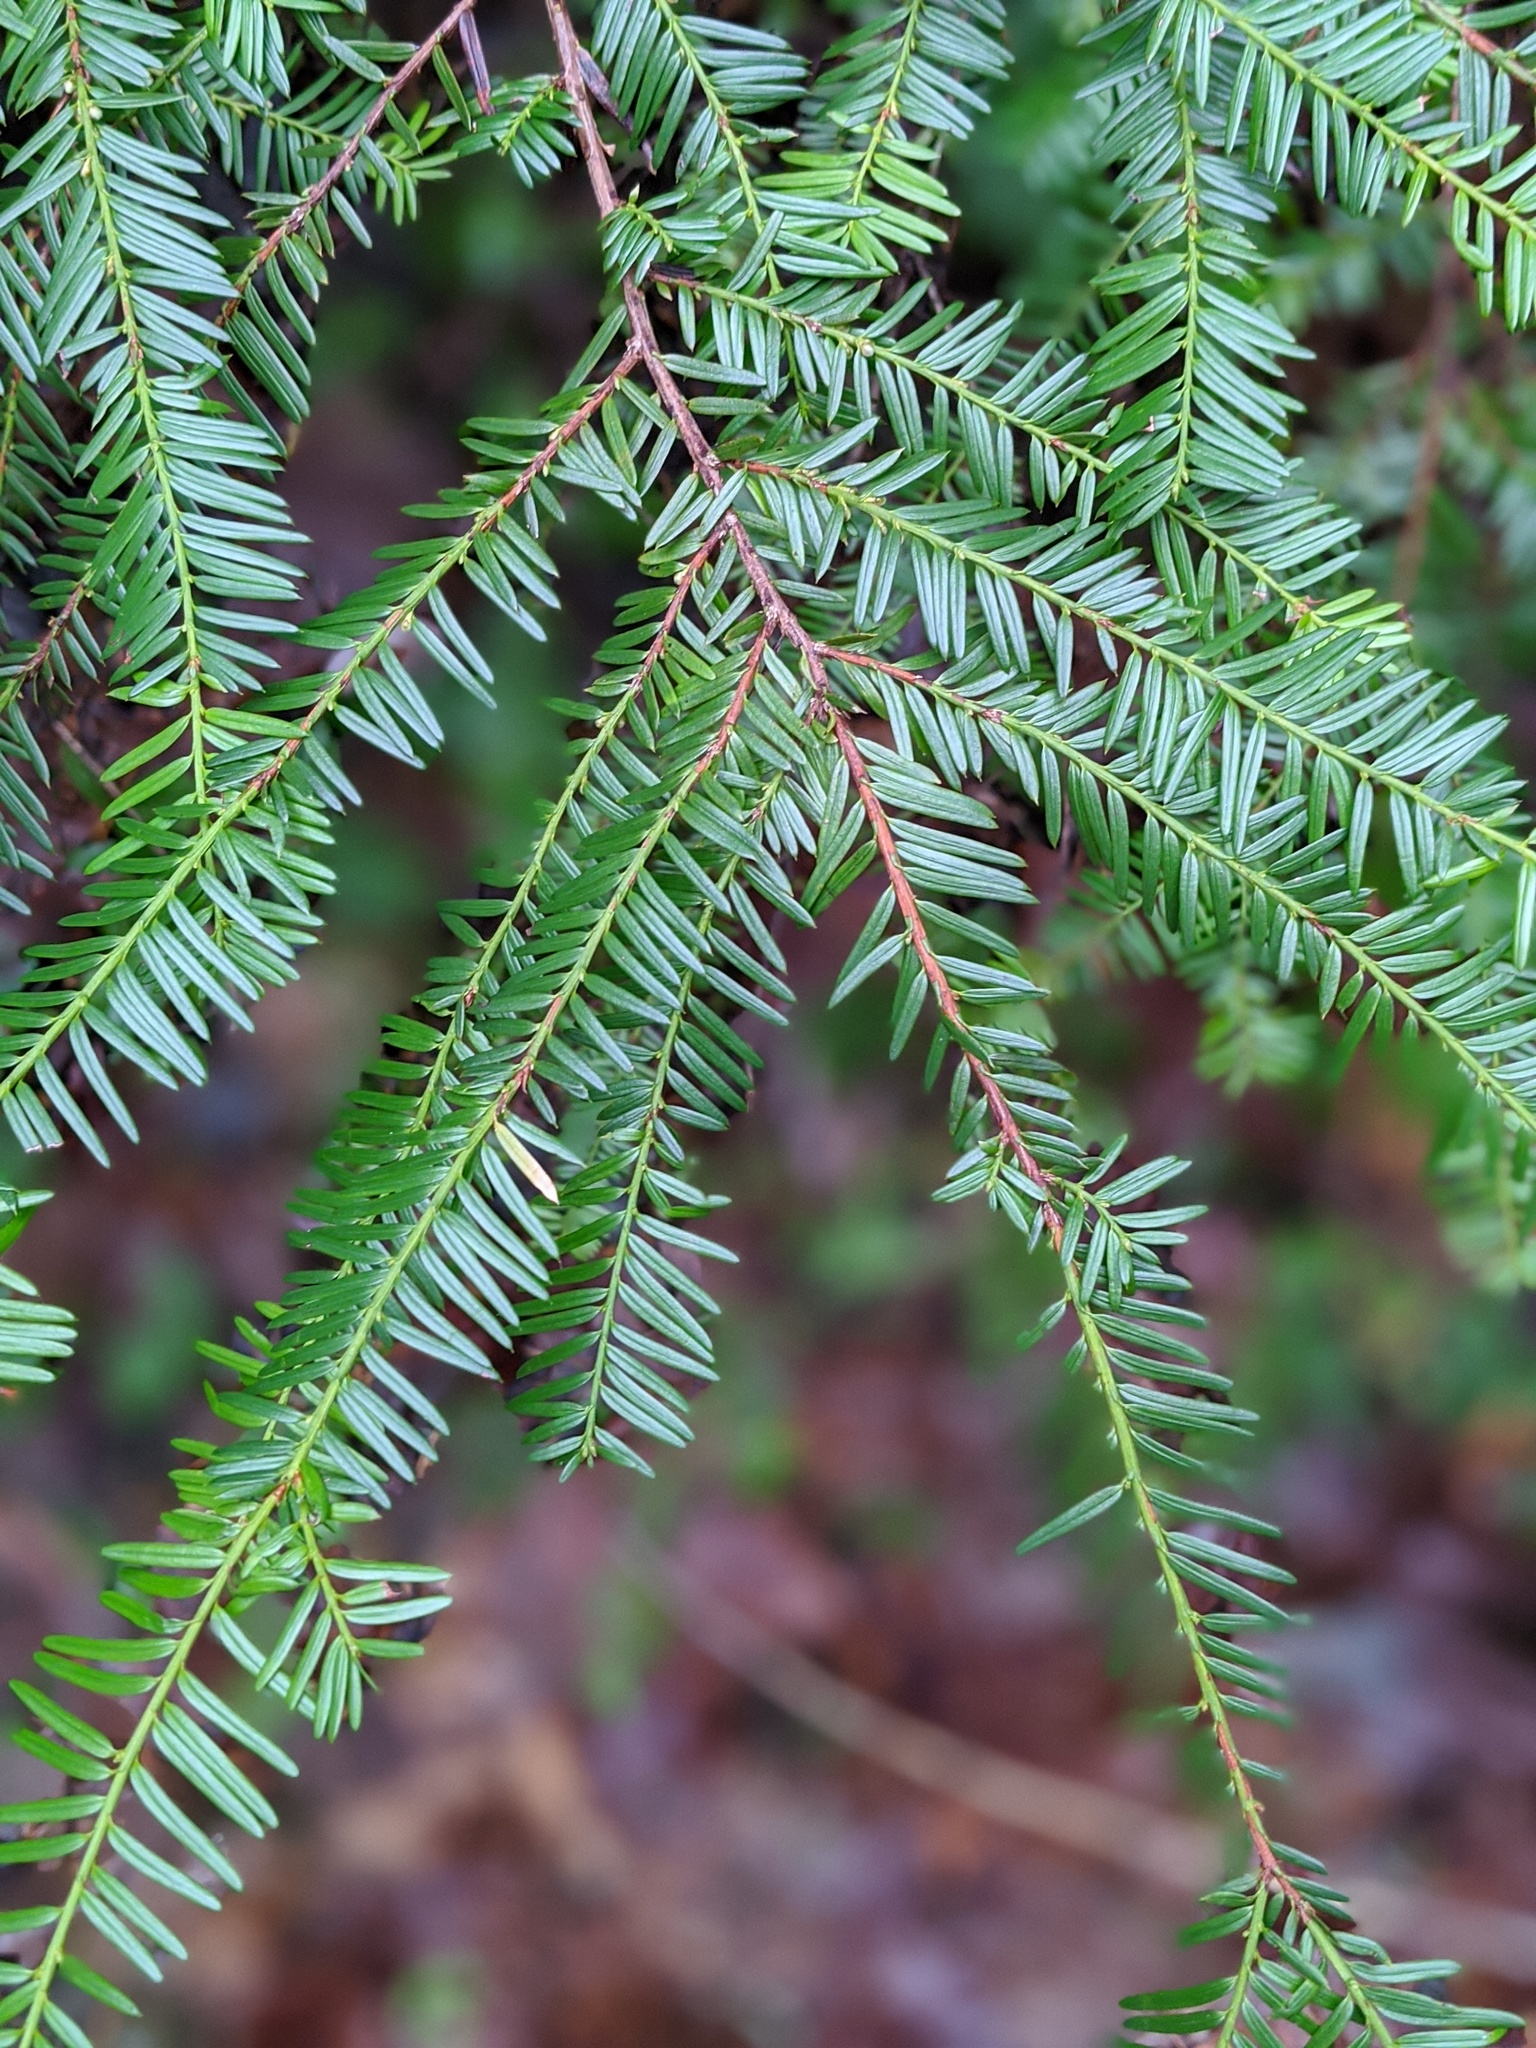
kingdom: Plantae
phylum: Tracheophyta
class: Pinopsida
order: Pinales
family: Taxaceae
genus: Taxus
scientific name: Taxus brevifolia
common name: Pacific yew
